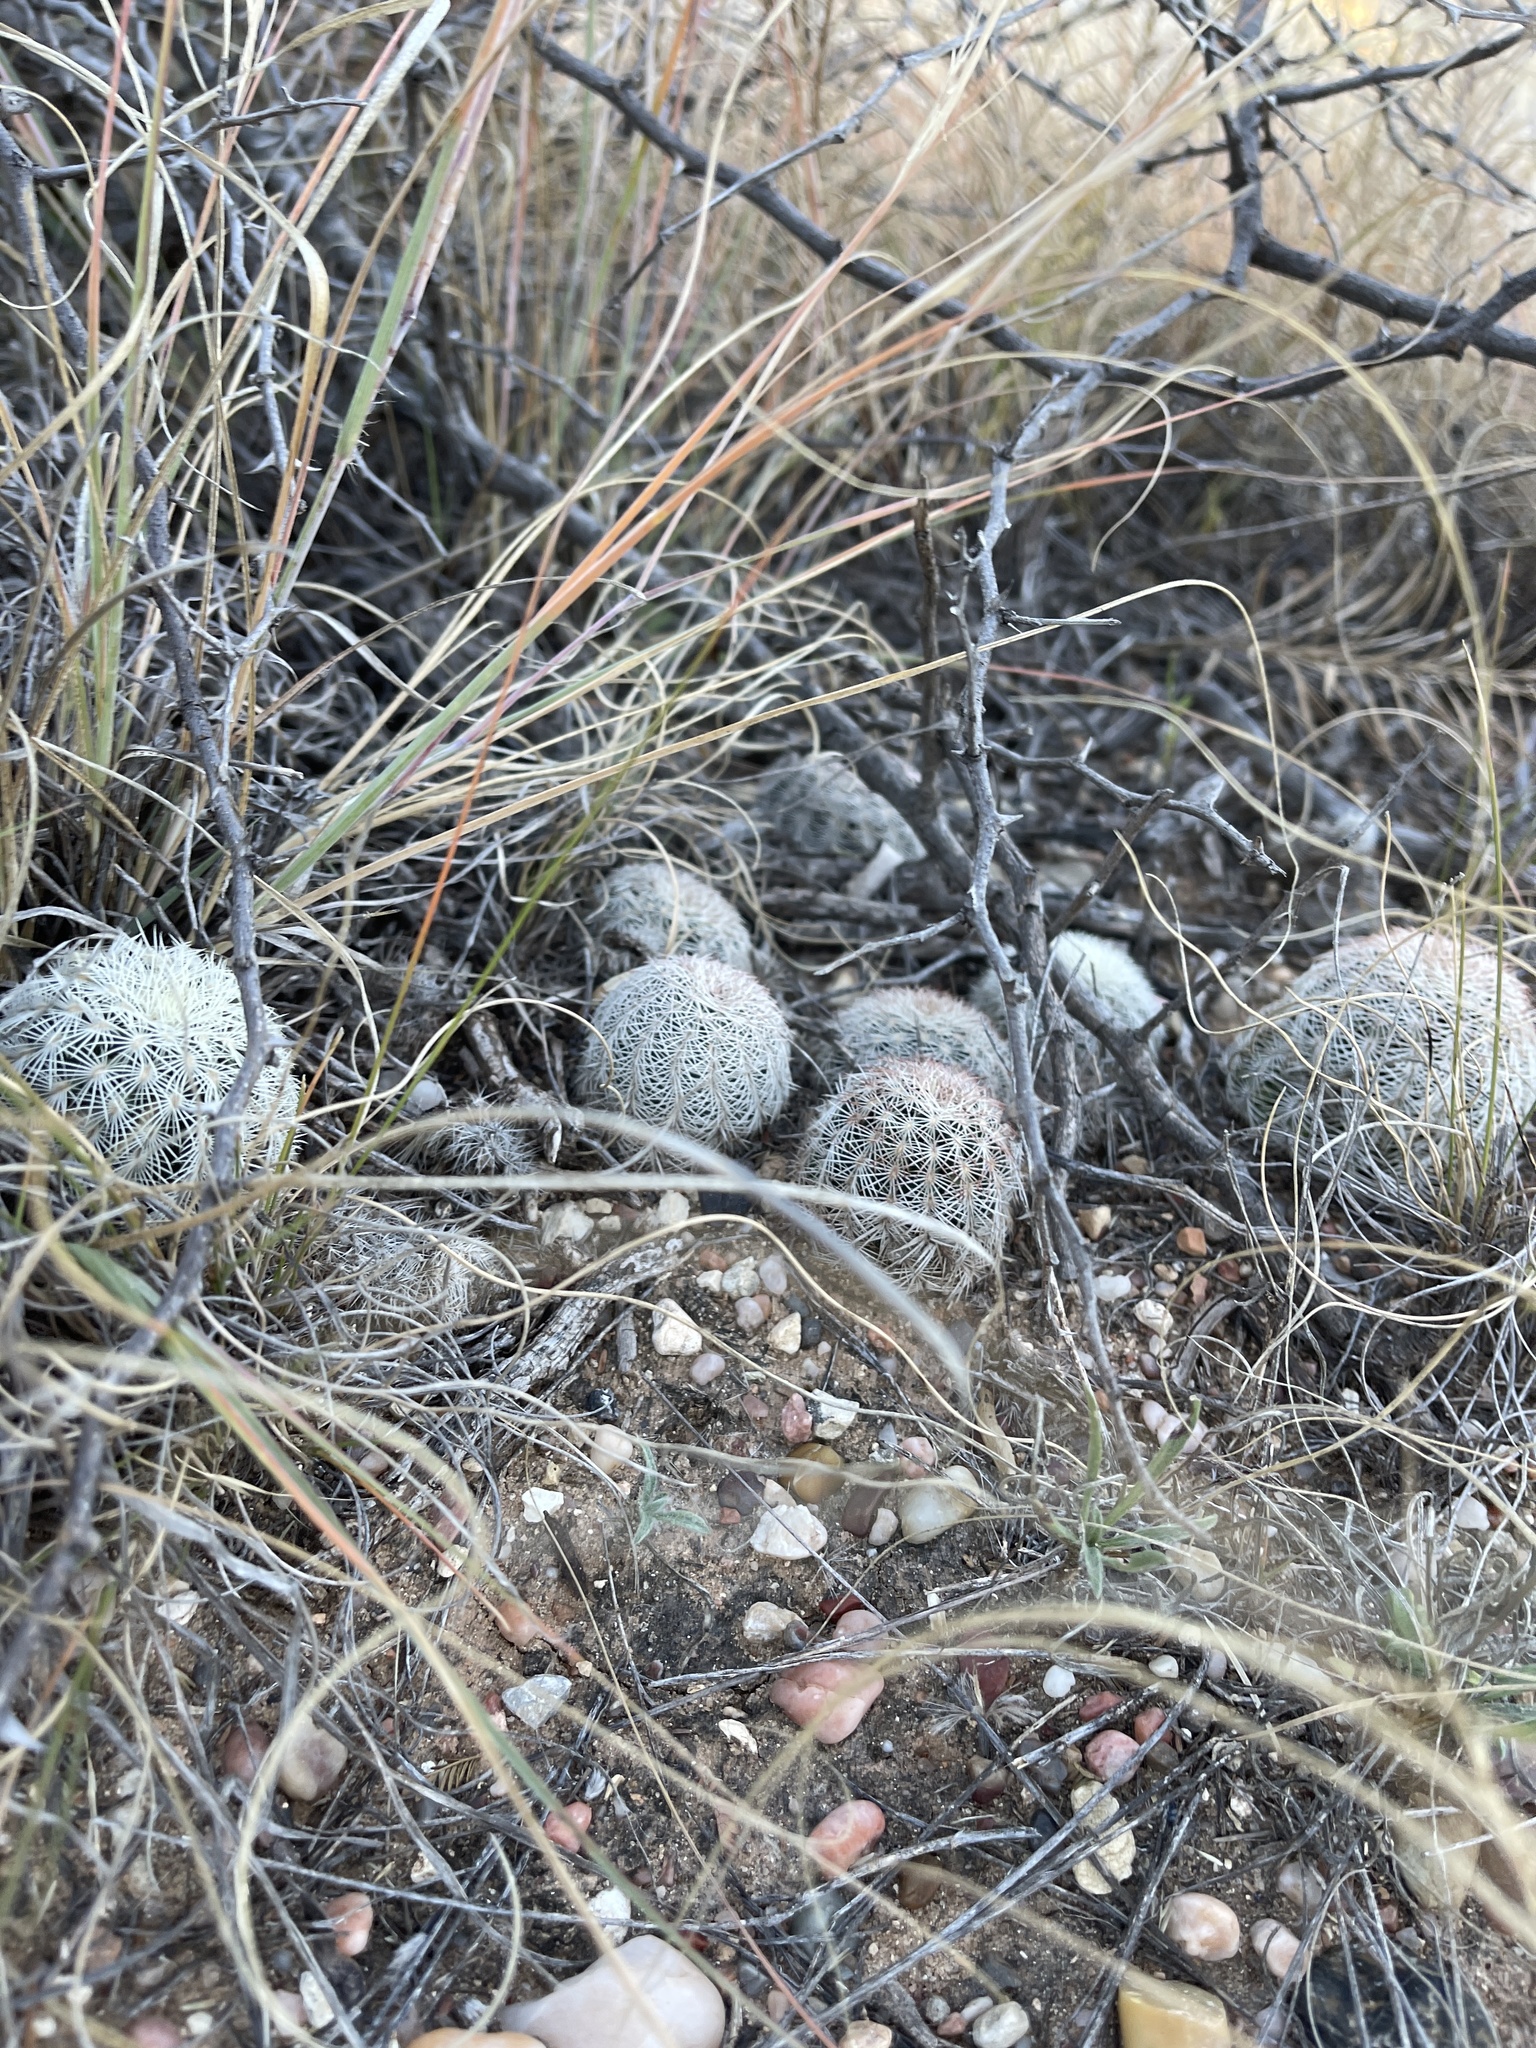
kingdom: Plantae
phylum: Tracheophyta
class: Magnoliopsida
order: Caryophyllales
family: Cactaceae
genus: Echinocereus
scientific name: Echinocereus reichenbachii
